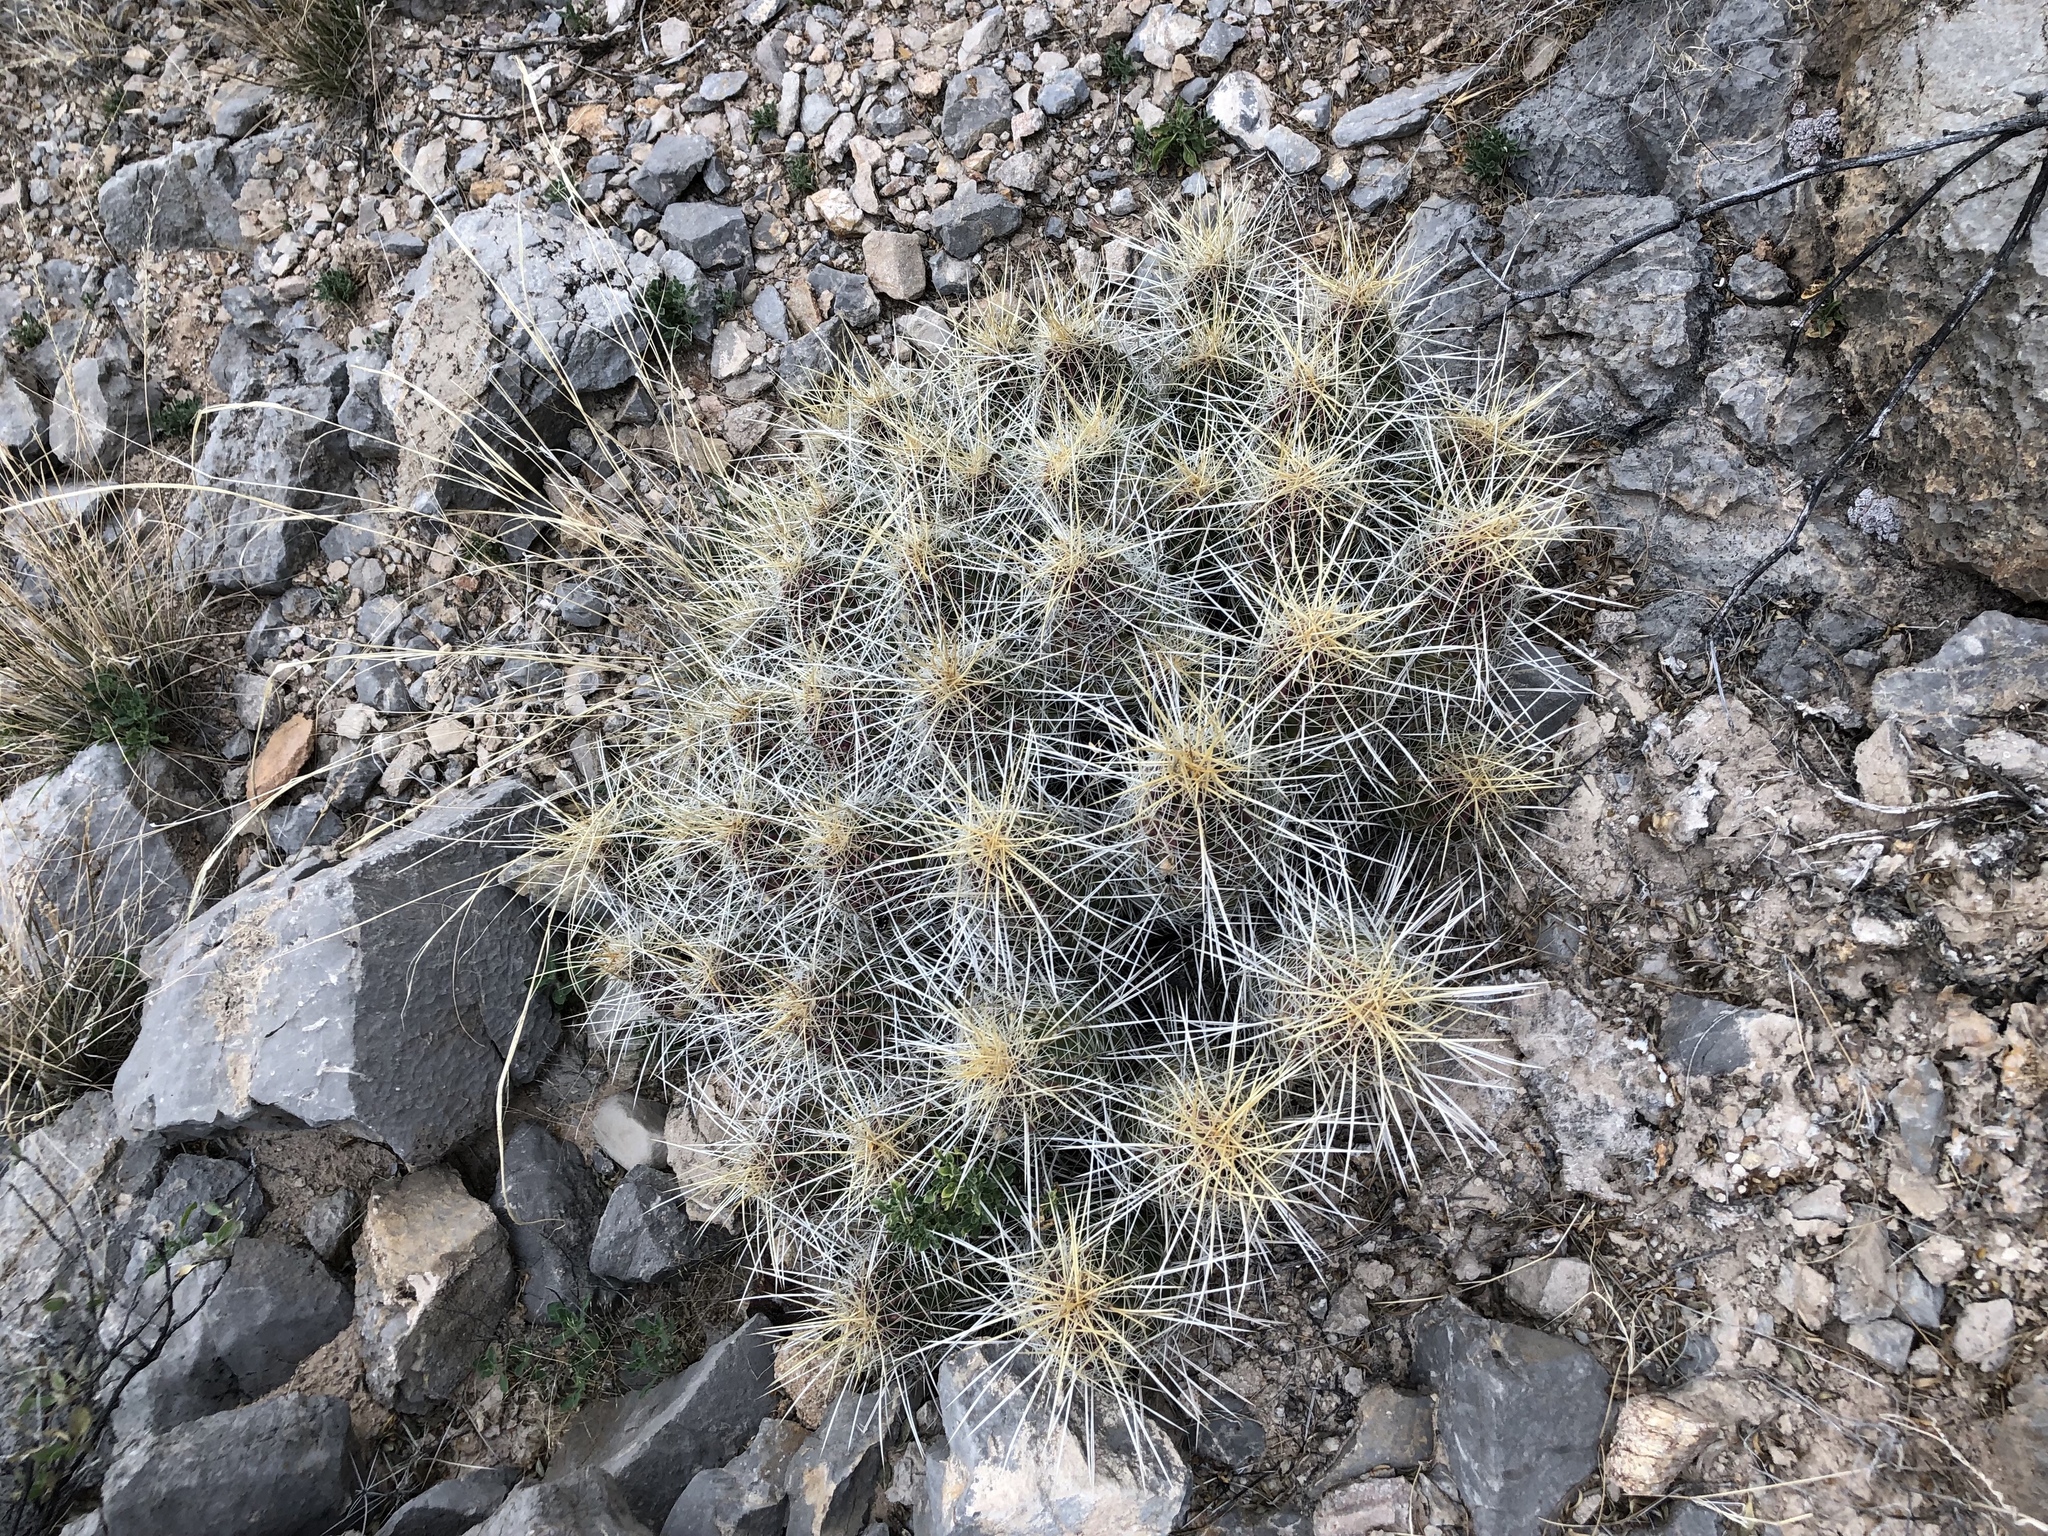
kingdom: Plantae
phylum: Tracheophyta
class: Magnoliopsida
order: Caryophyllales
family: Cactaceae
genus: Echinocereus
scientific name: Echinocereus stramineus
